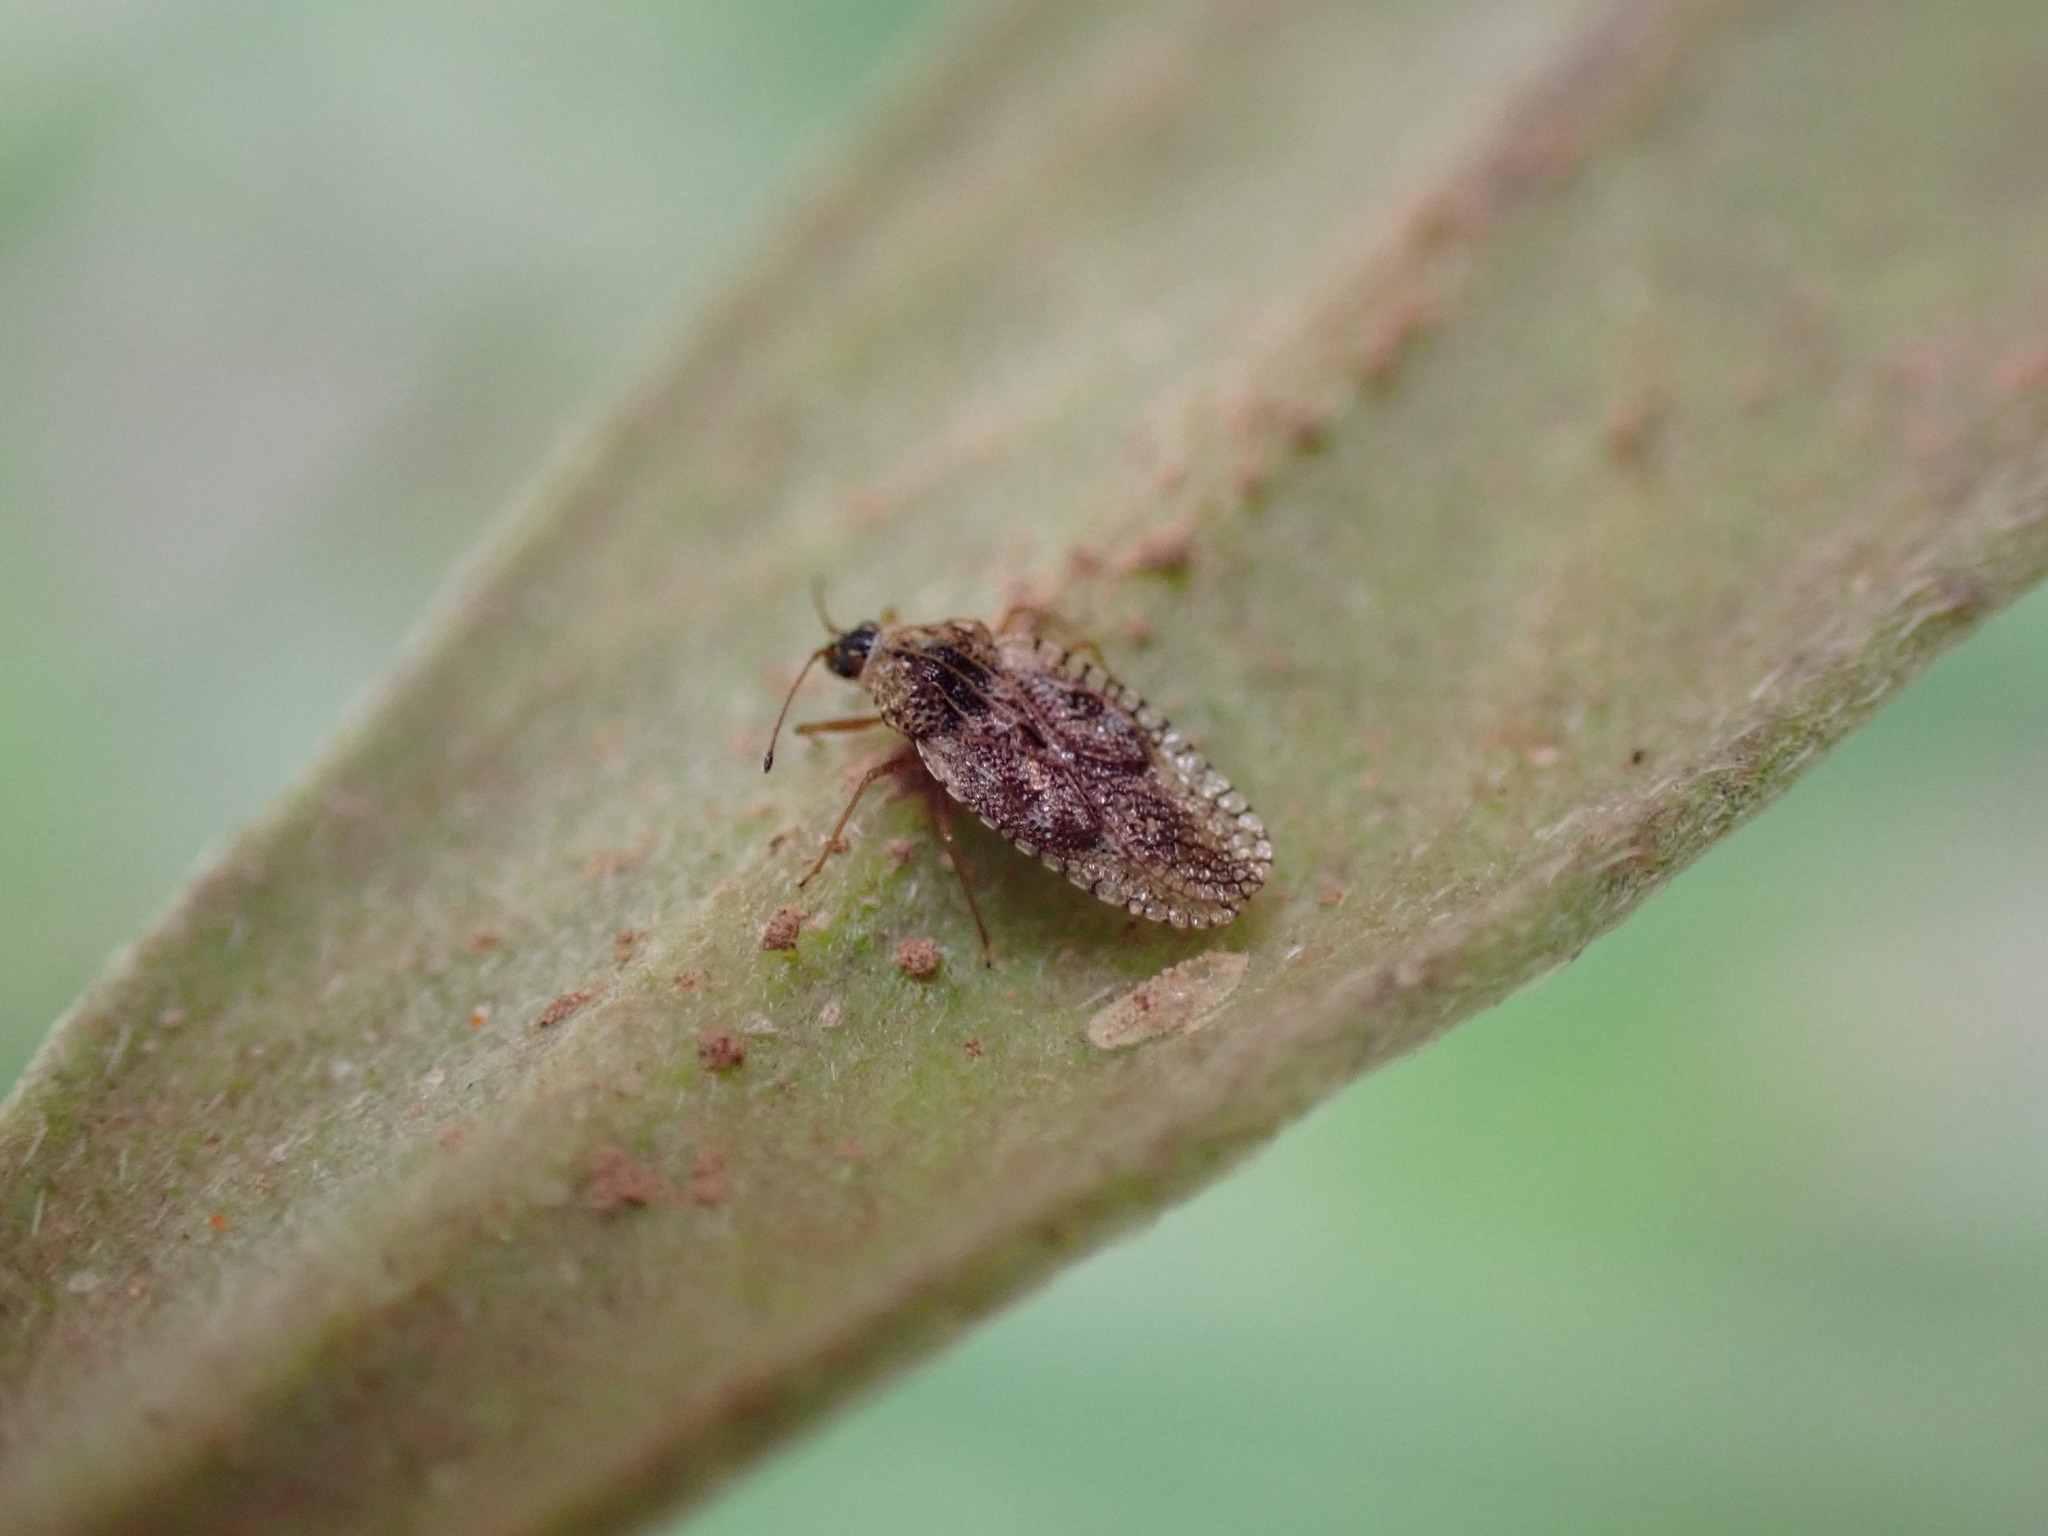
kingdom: Animalia
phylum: Arthropoda
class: Insecta
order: Hemiptera
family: Tingidae
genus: Dictyla
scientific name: Dictyla indigena
